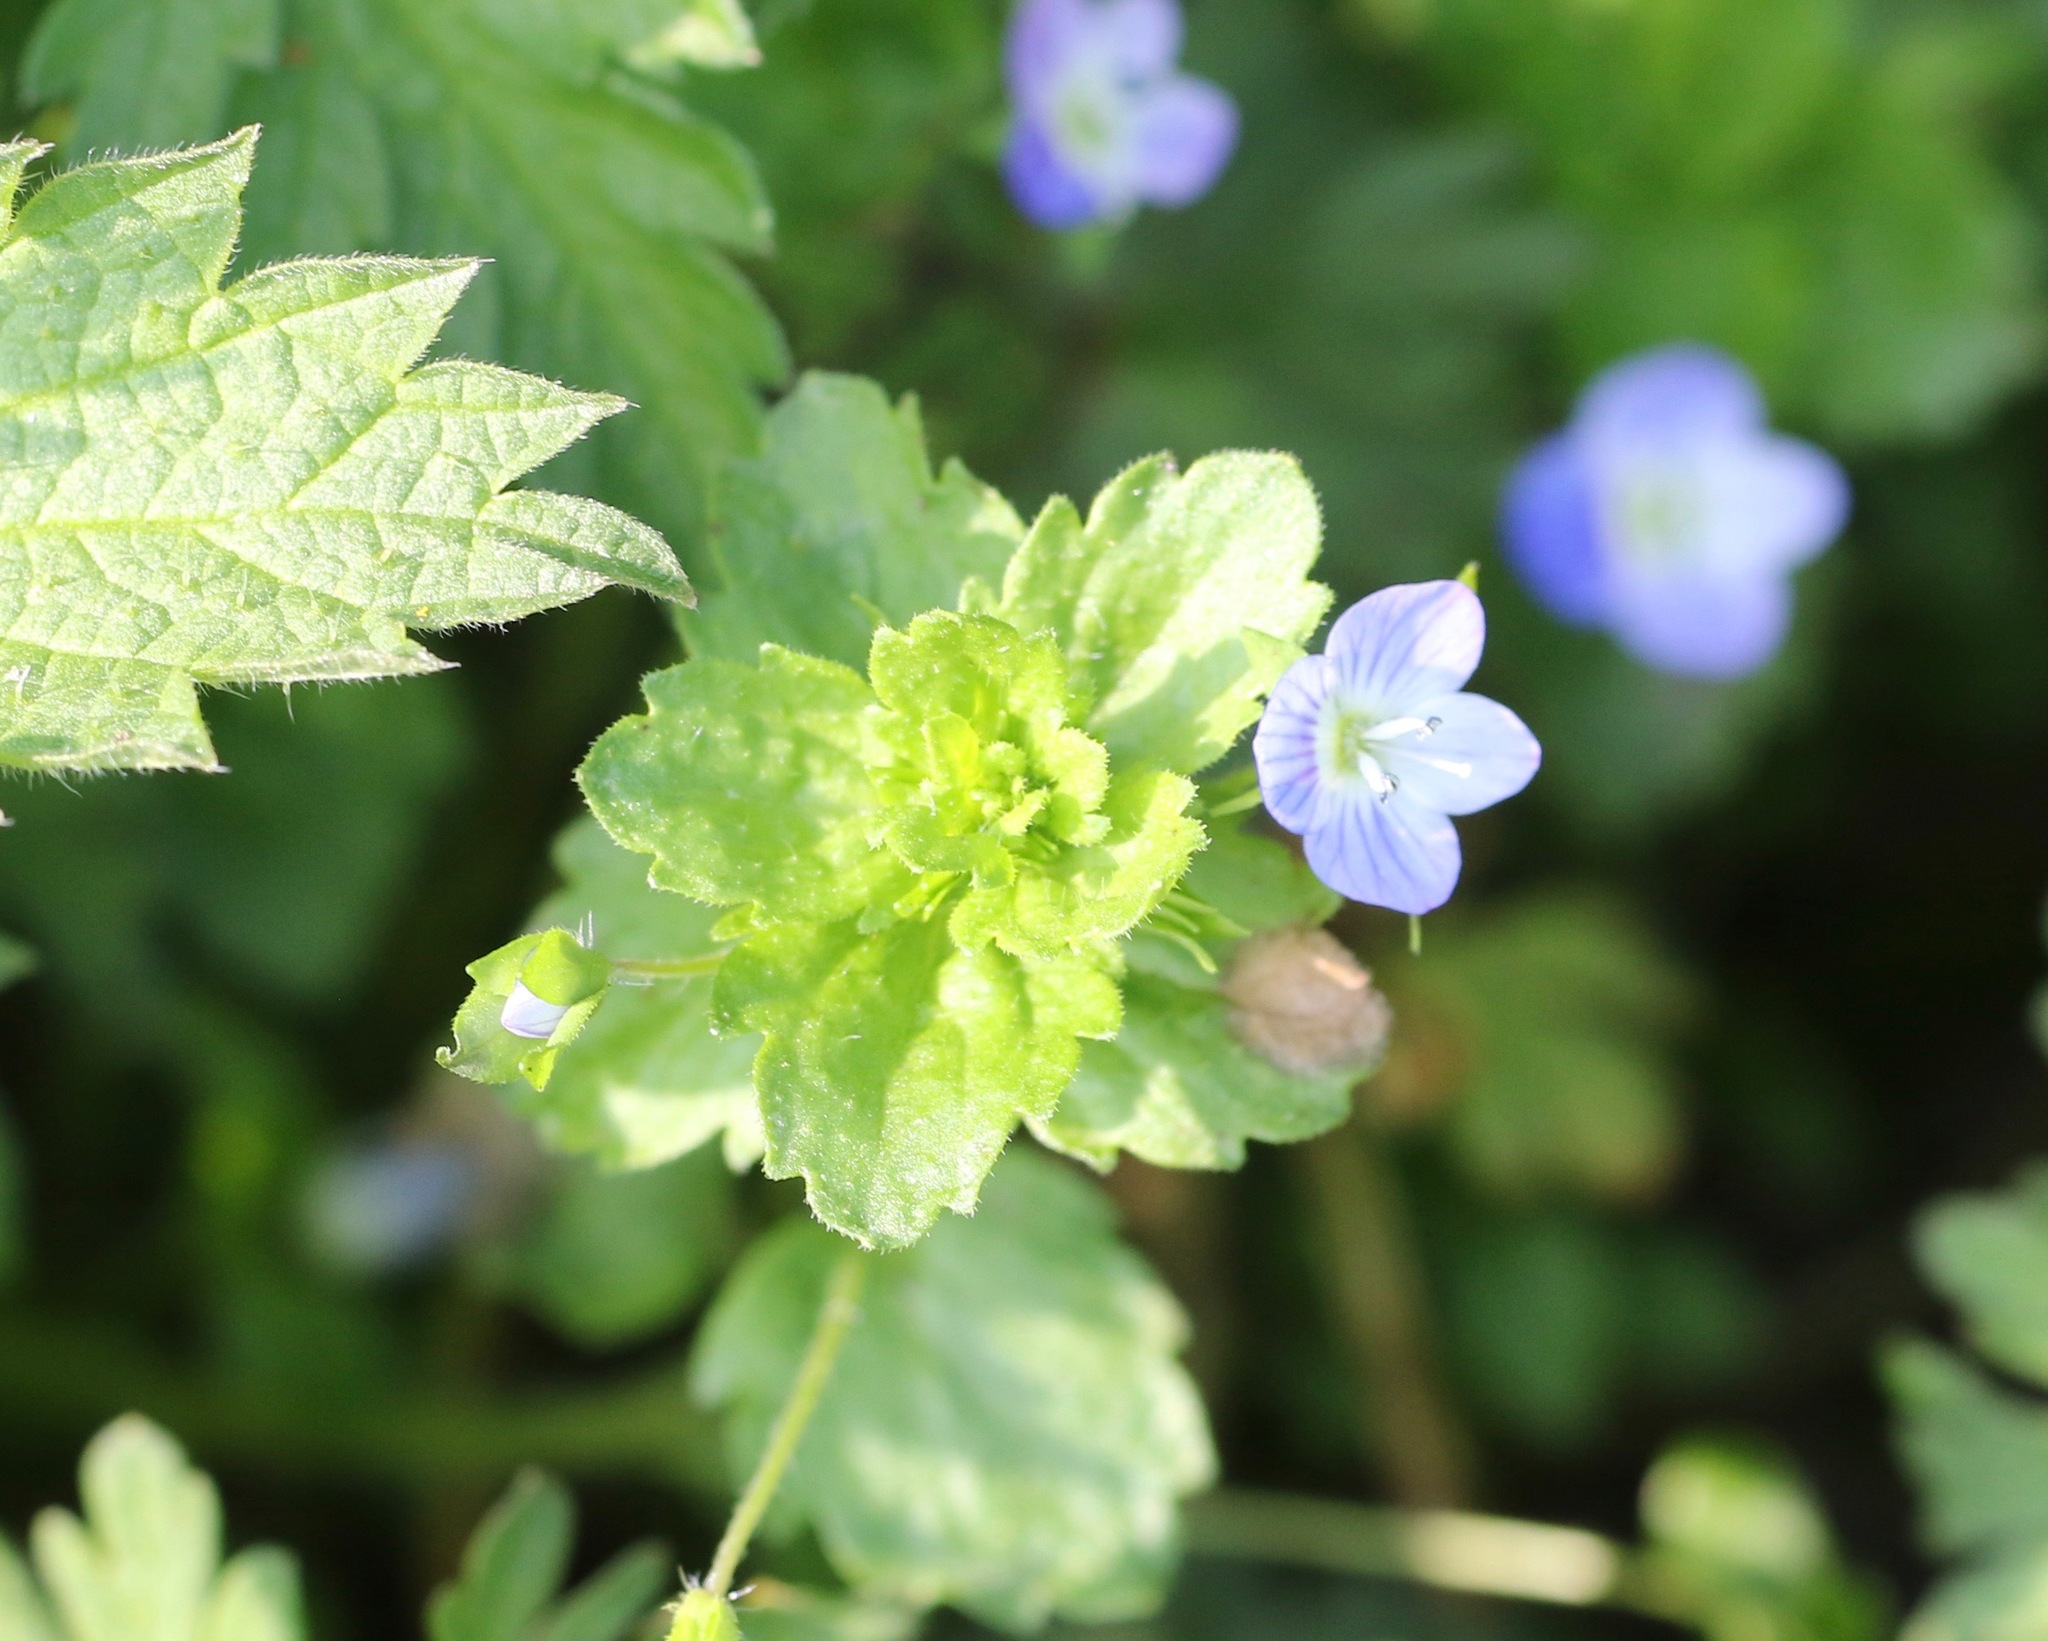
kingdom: Plantae
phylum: Tracheophyta
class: Magnoliopsida
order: Lamiales
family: Plantaginaceae
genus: Veronica
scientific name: Veronica persica
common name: Common field-speedwell
